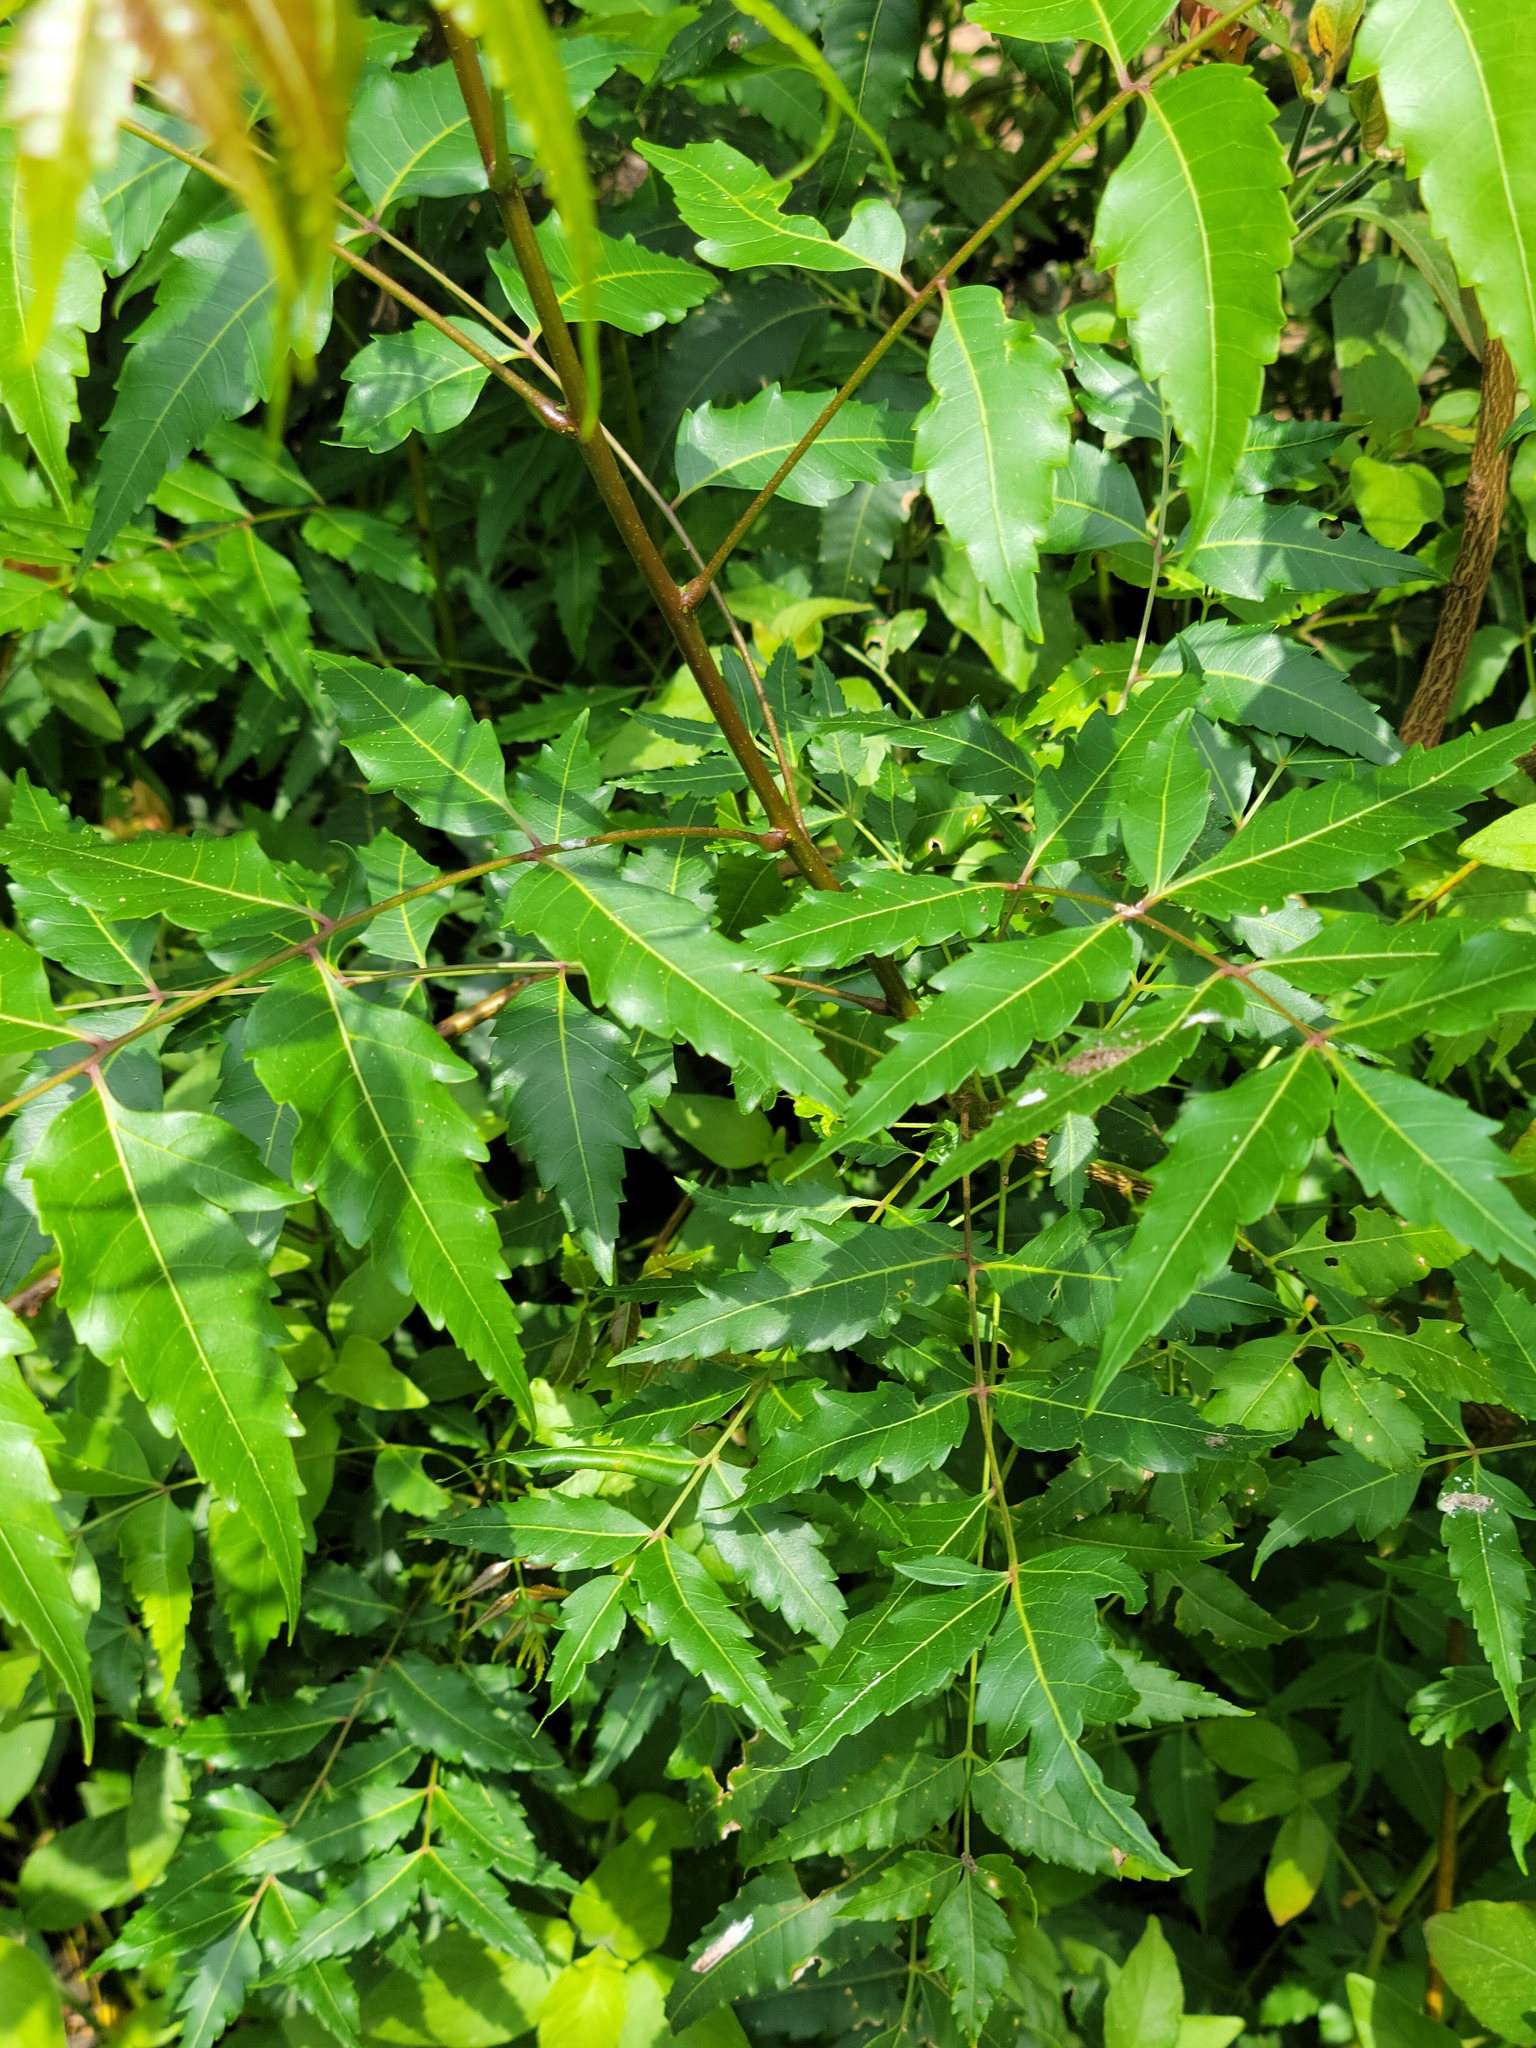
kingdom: Plantae
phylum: Tracheophyta
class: Magnoliopsida
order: Sapindales
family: Meliaceae
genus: Azadirachta
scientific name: Azadirachta indica
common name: Neem
